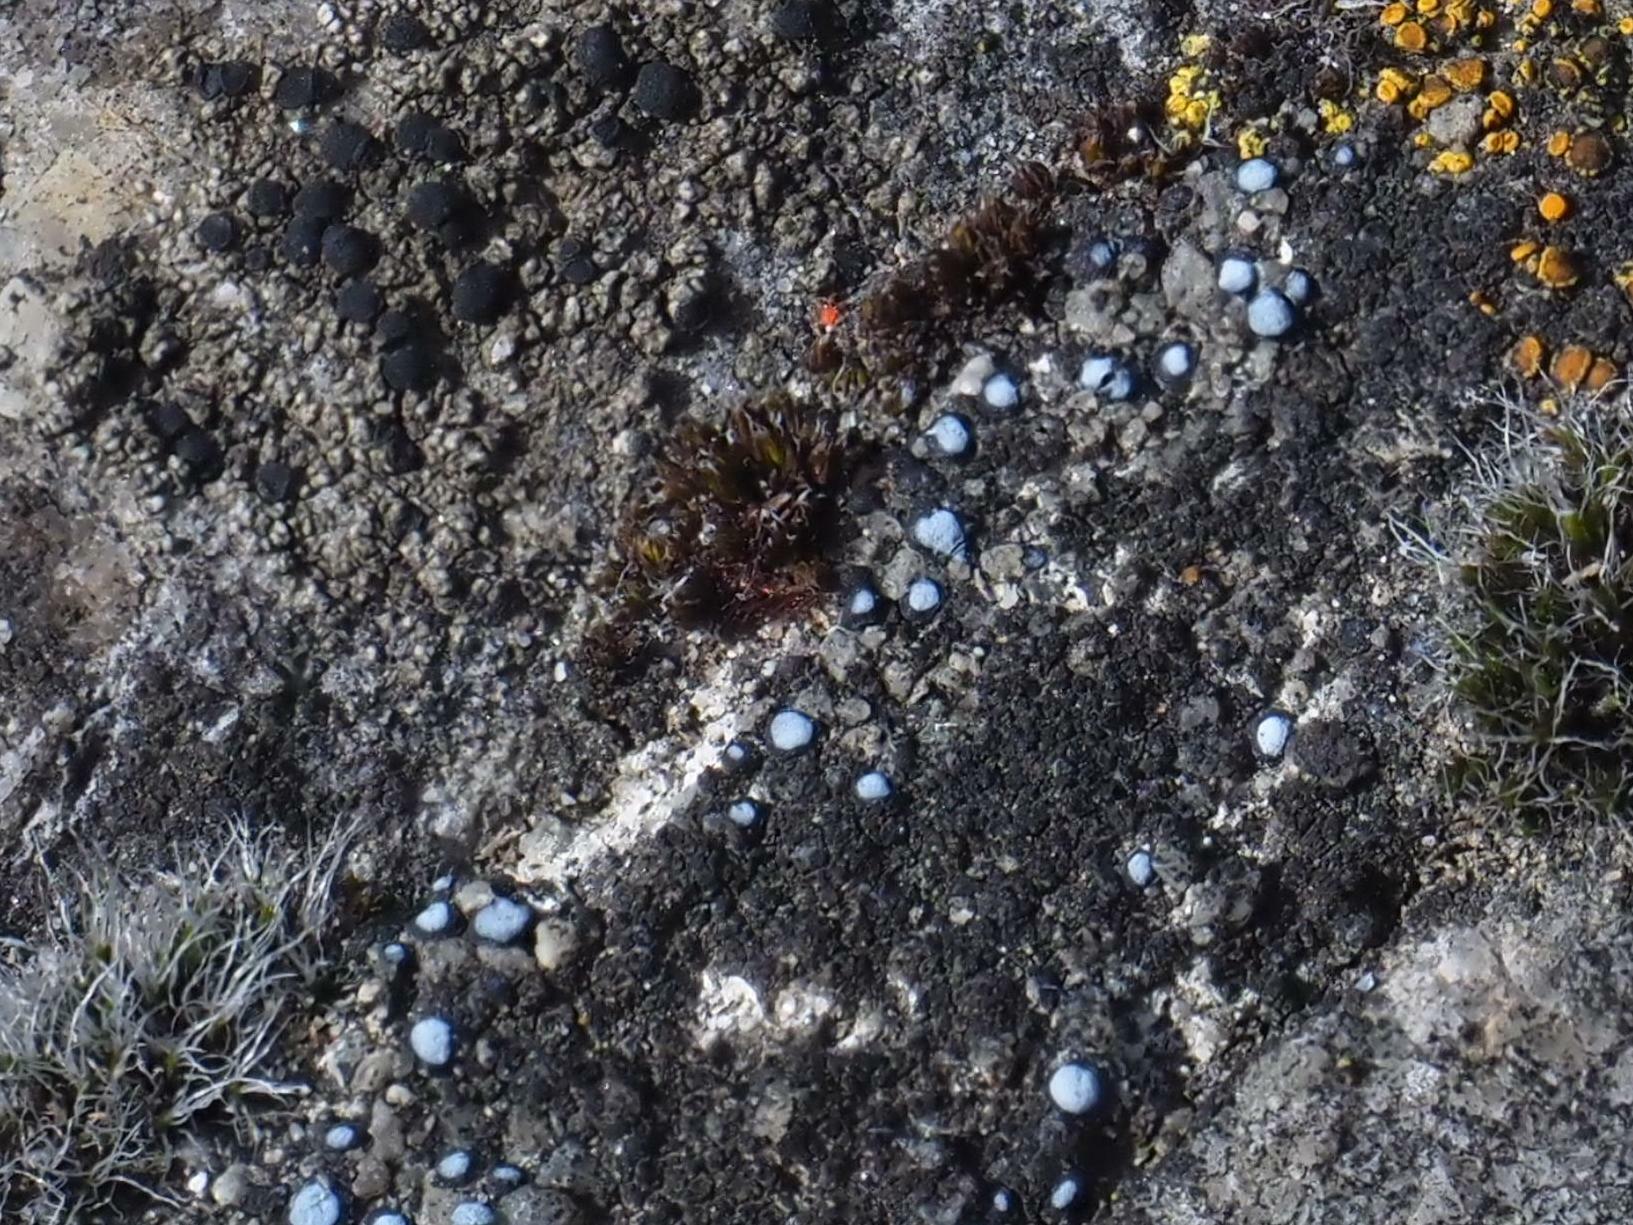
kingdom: Fungi
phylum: Ascomycota
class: Lecanoromycetes
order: Acarosporales
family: Acarosporaceae
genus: Sarcogyne
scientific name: Sarcogyne regularis
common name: Frosted grain-spored lichen
